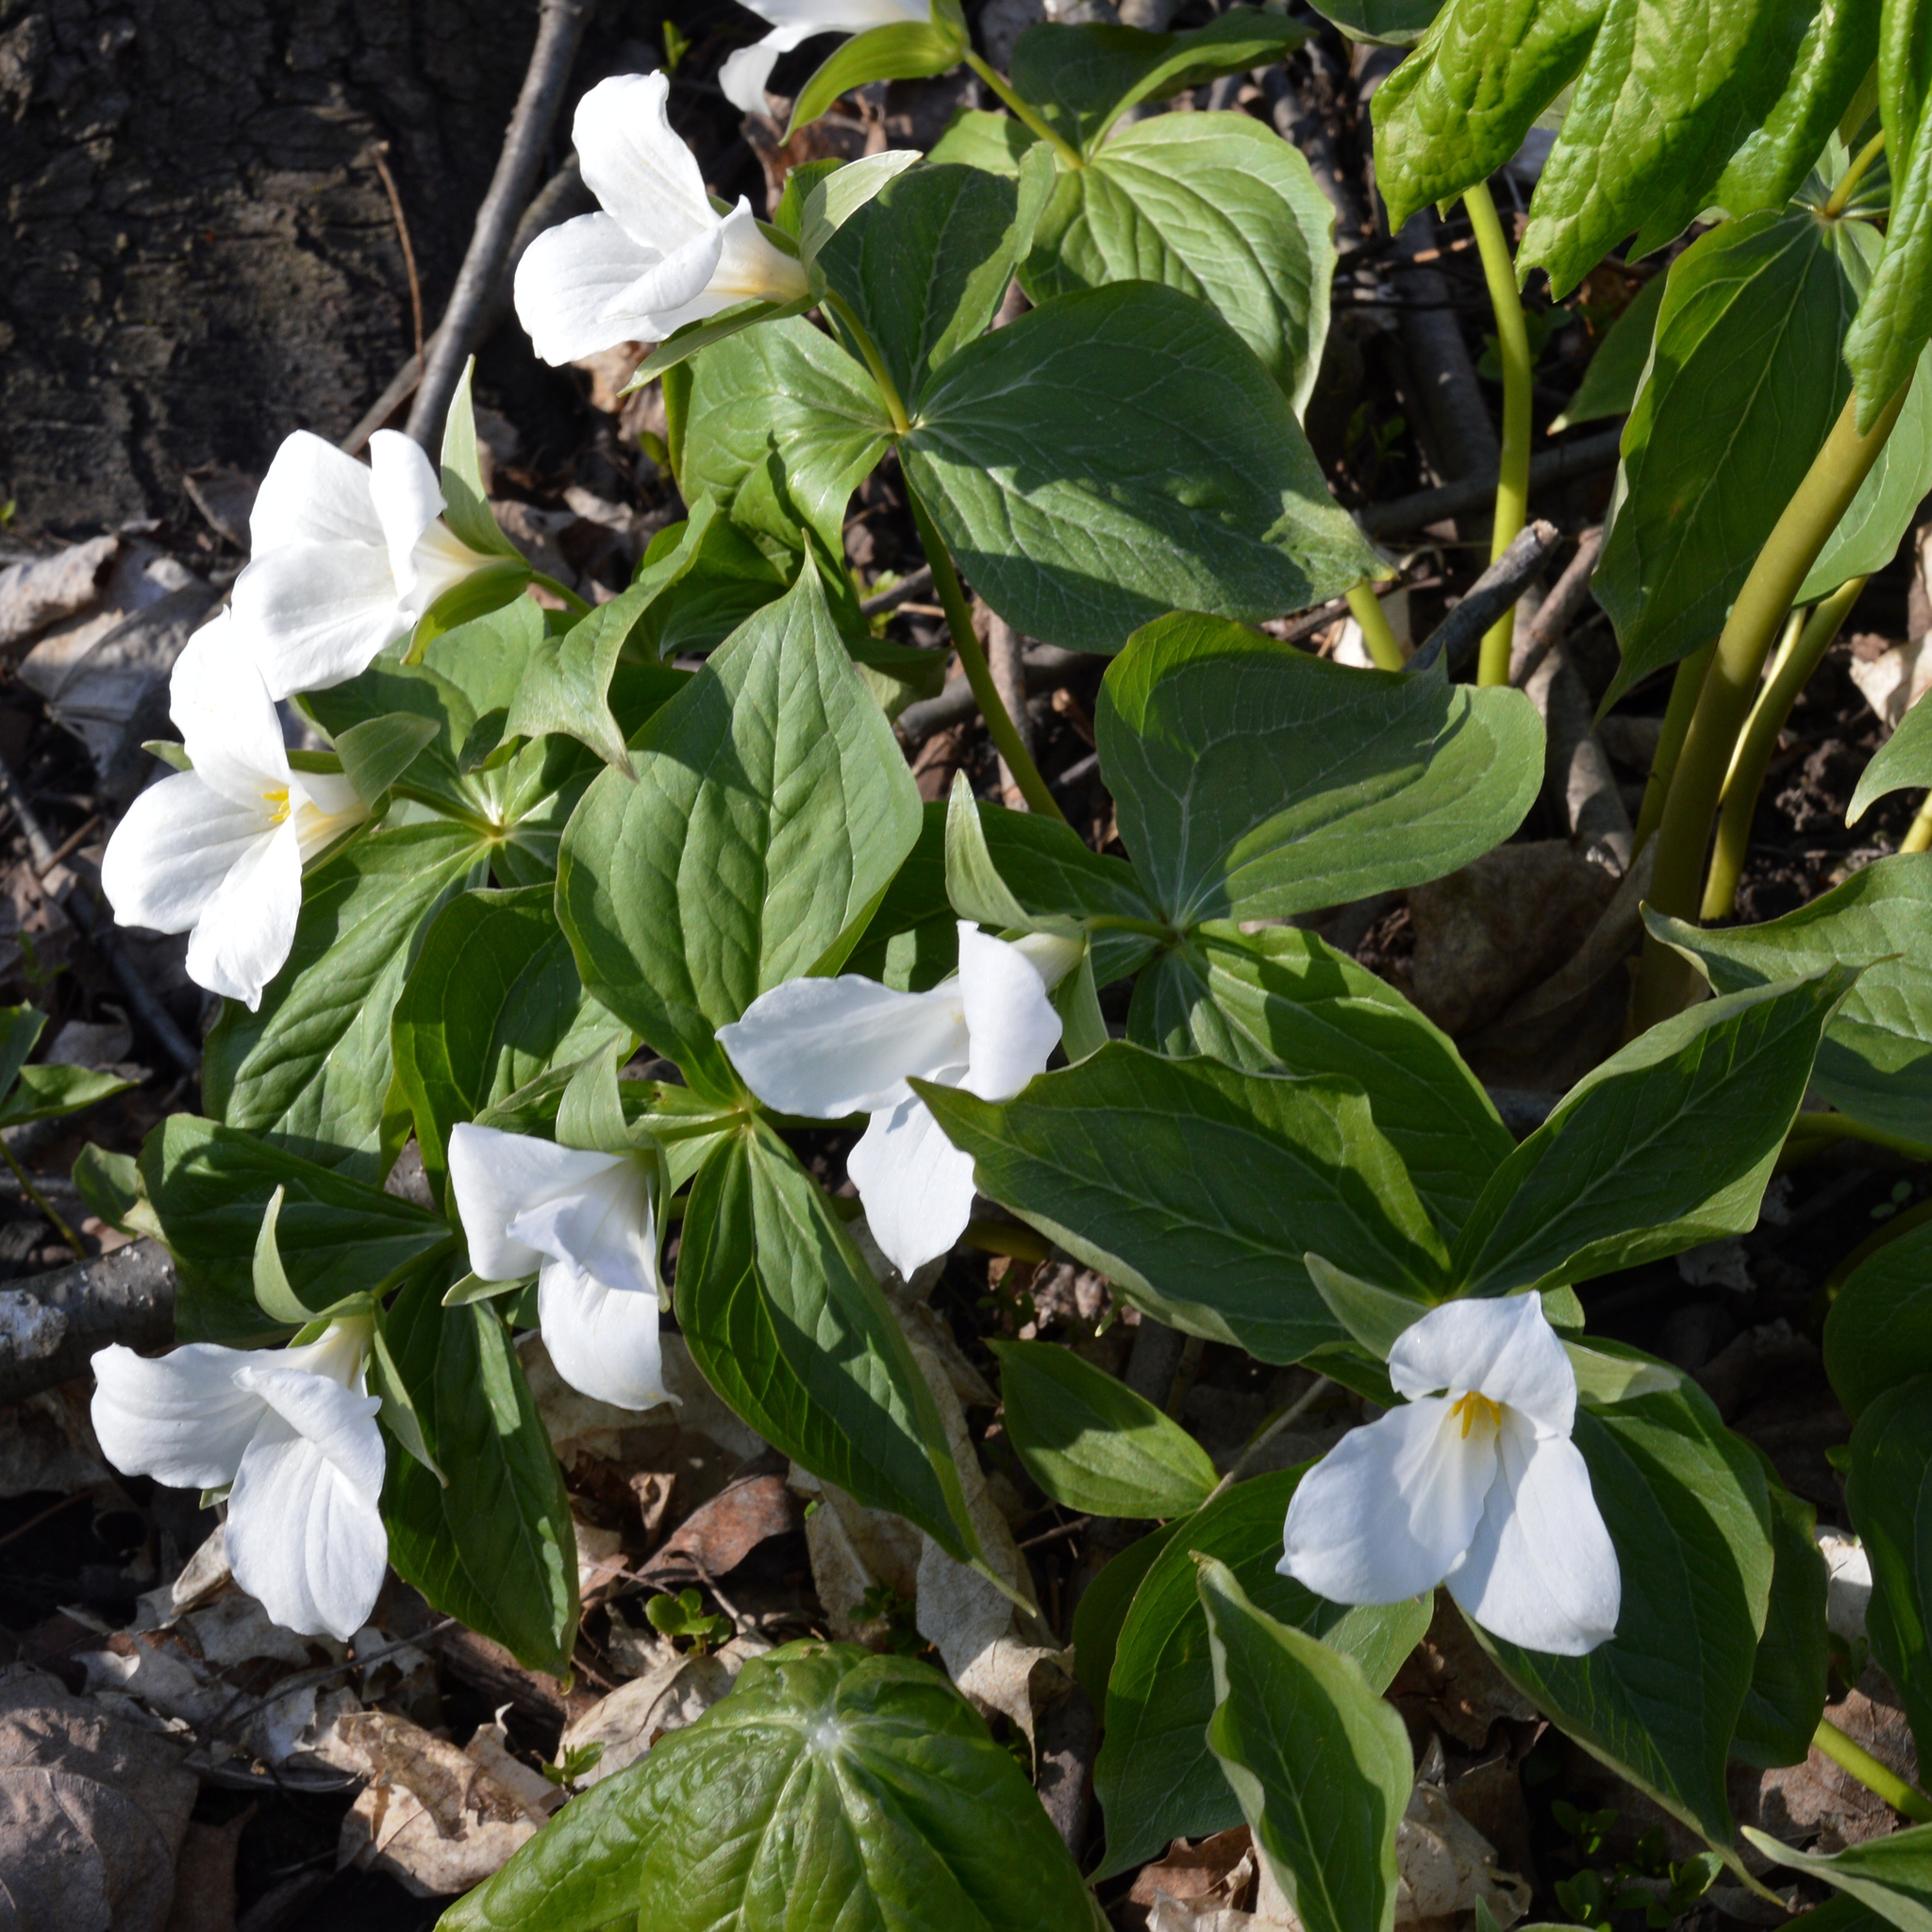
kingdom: Plantae
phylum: Tracheophyta
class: Liliopsida
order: Liliales
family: Melanthiaceae
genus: Trillium
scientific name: Trillium grandiflorum
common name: Great white trillium
